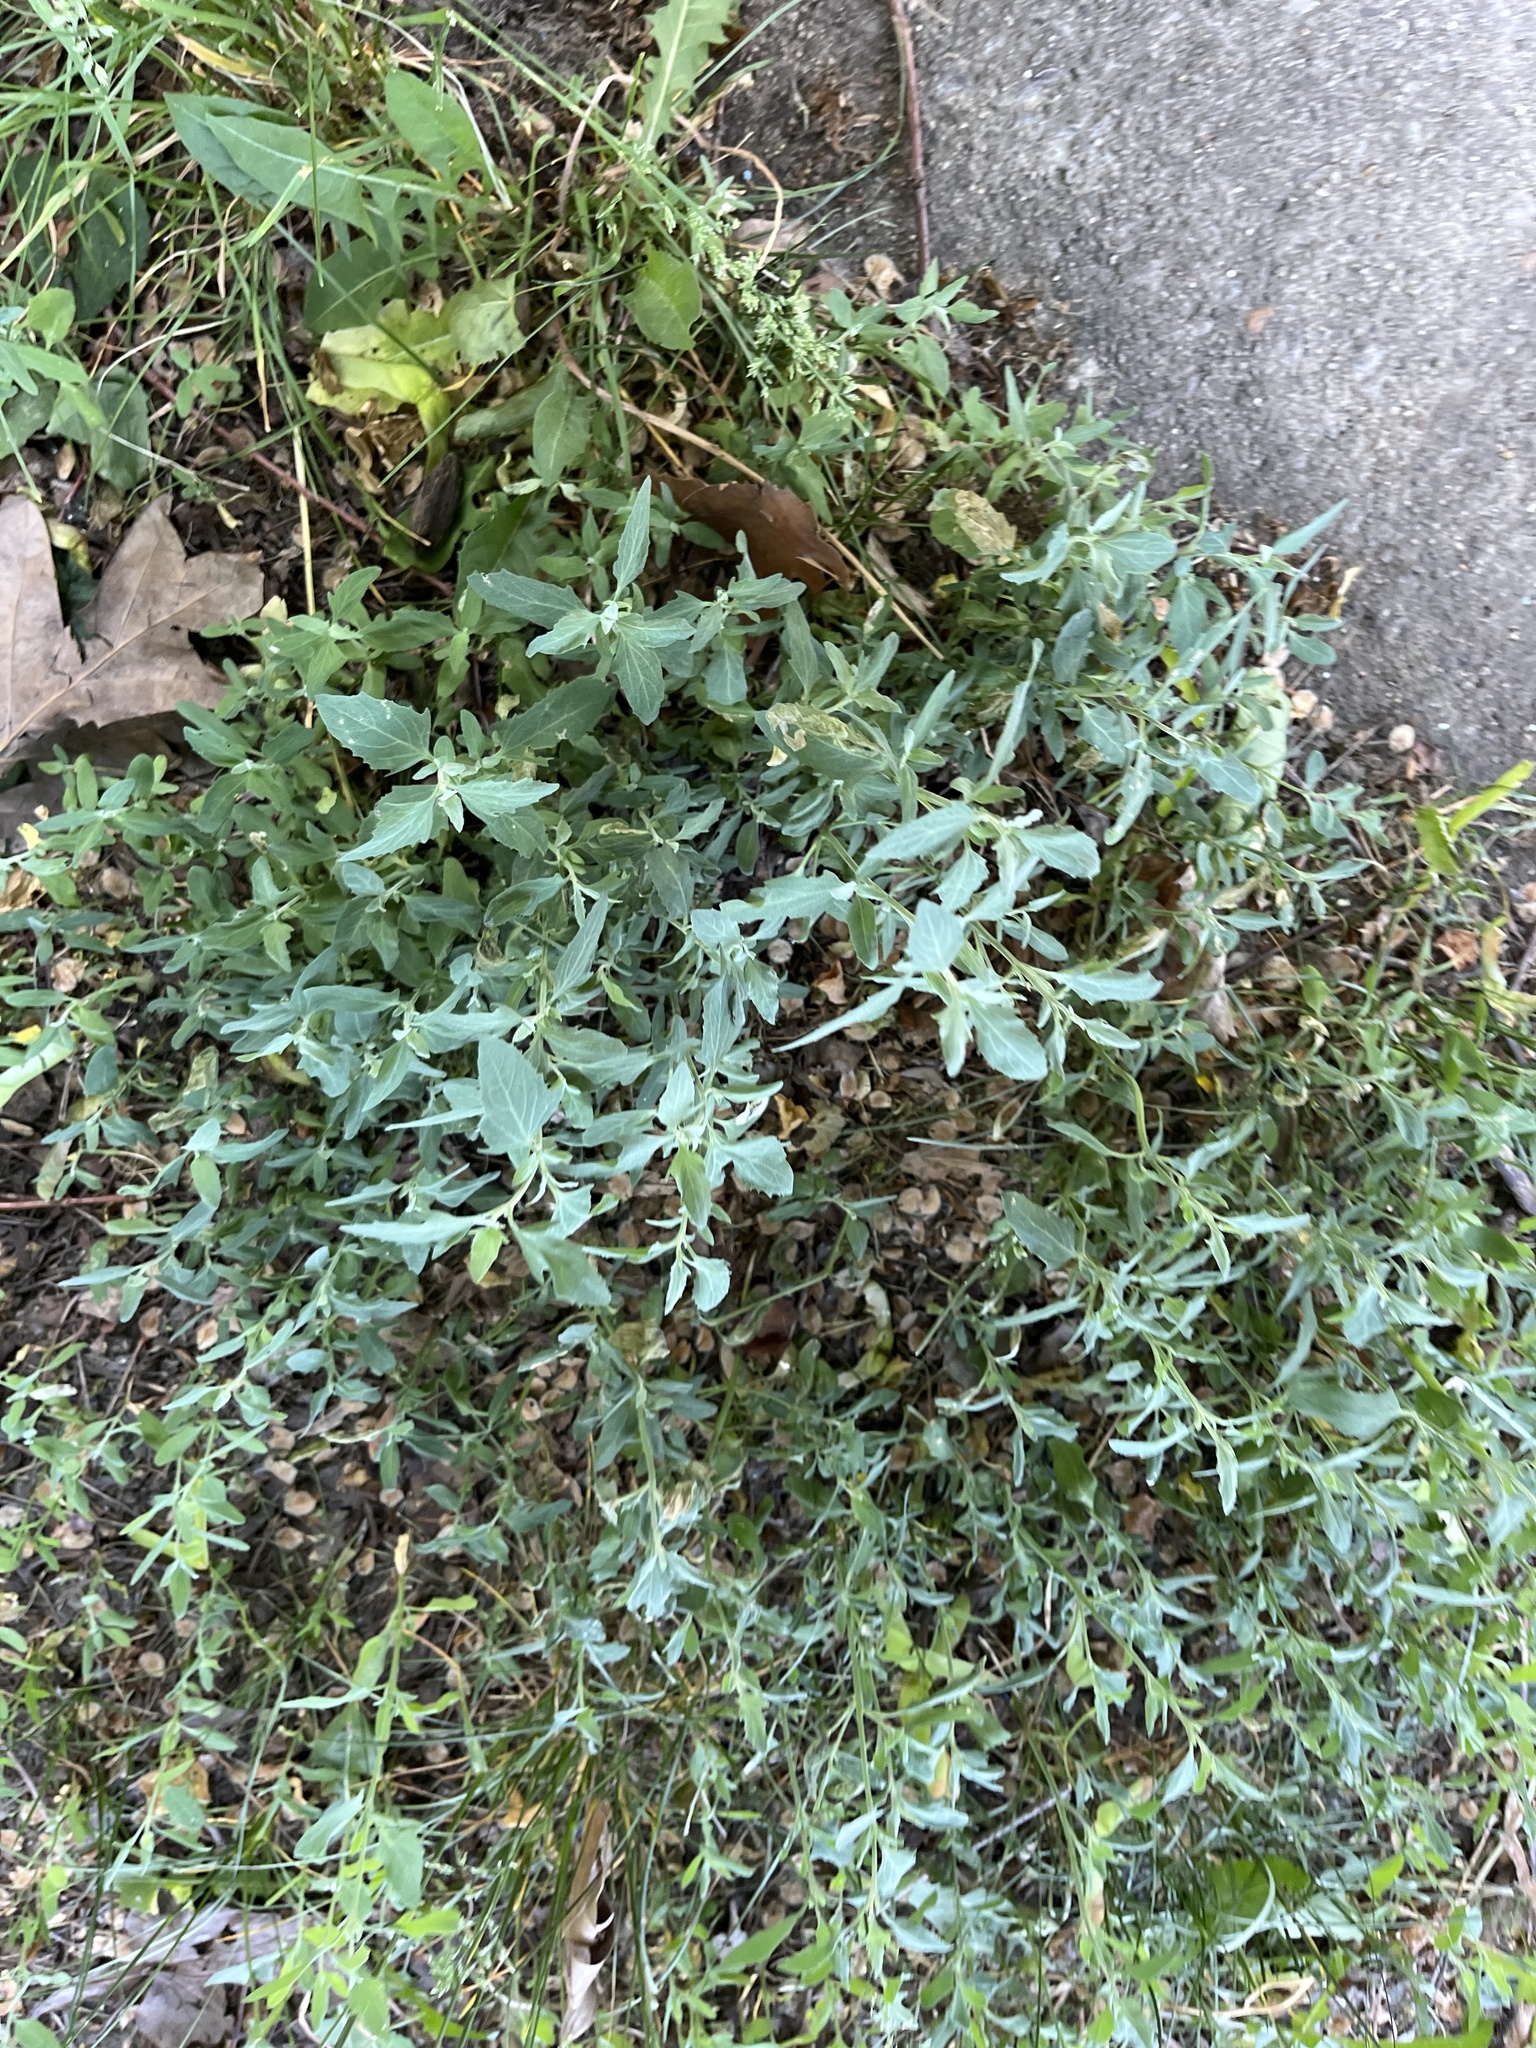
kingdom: Plantae
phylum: Tracheophyta
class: Magnoliopsida
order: Caryophyllales
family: Amaranthaceae
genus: Chenopodium
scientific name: Chenopodium album
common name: Fat-hen
